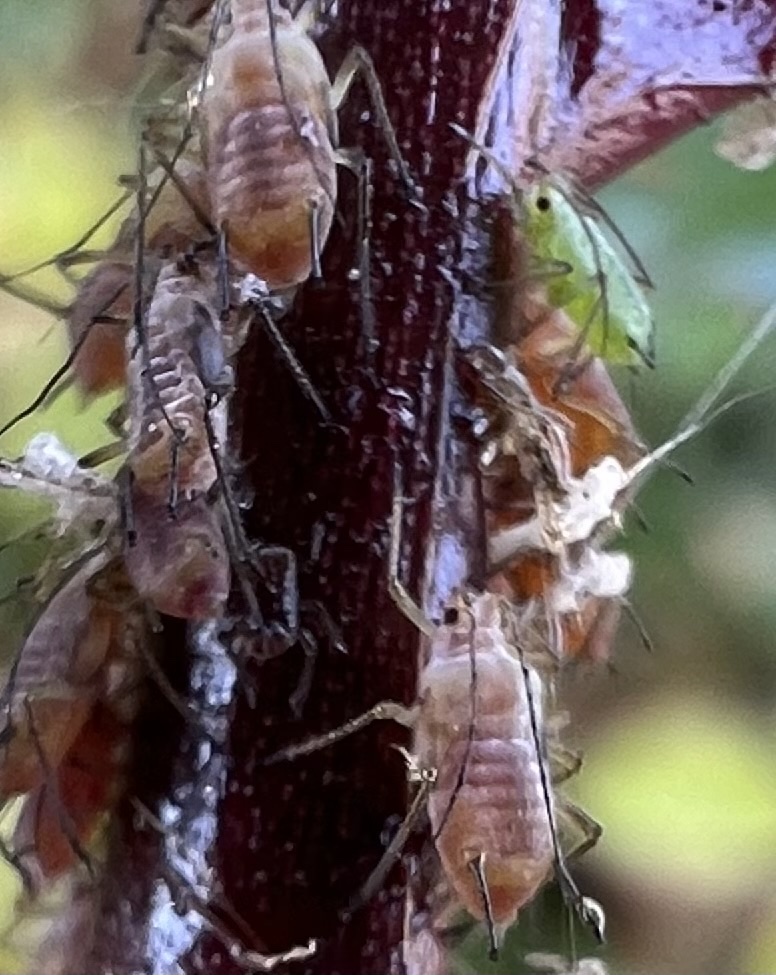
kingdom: Animalia
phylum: Arthropoda
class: Insecta
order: Hemiptera
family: Aphididae
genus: Macrosiphum
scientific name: Macrosiphum rosae
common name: Rose aphid
